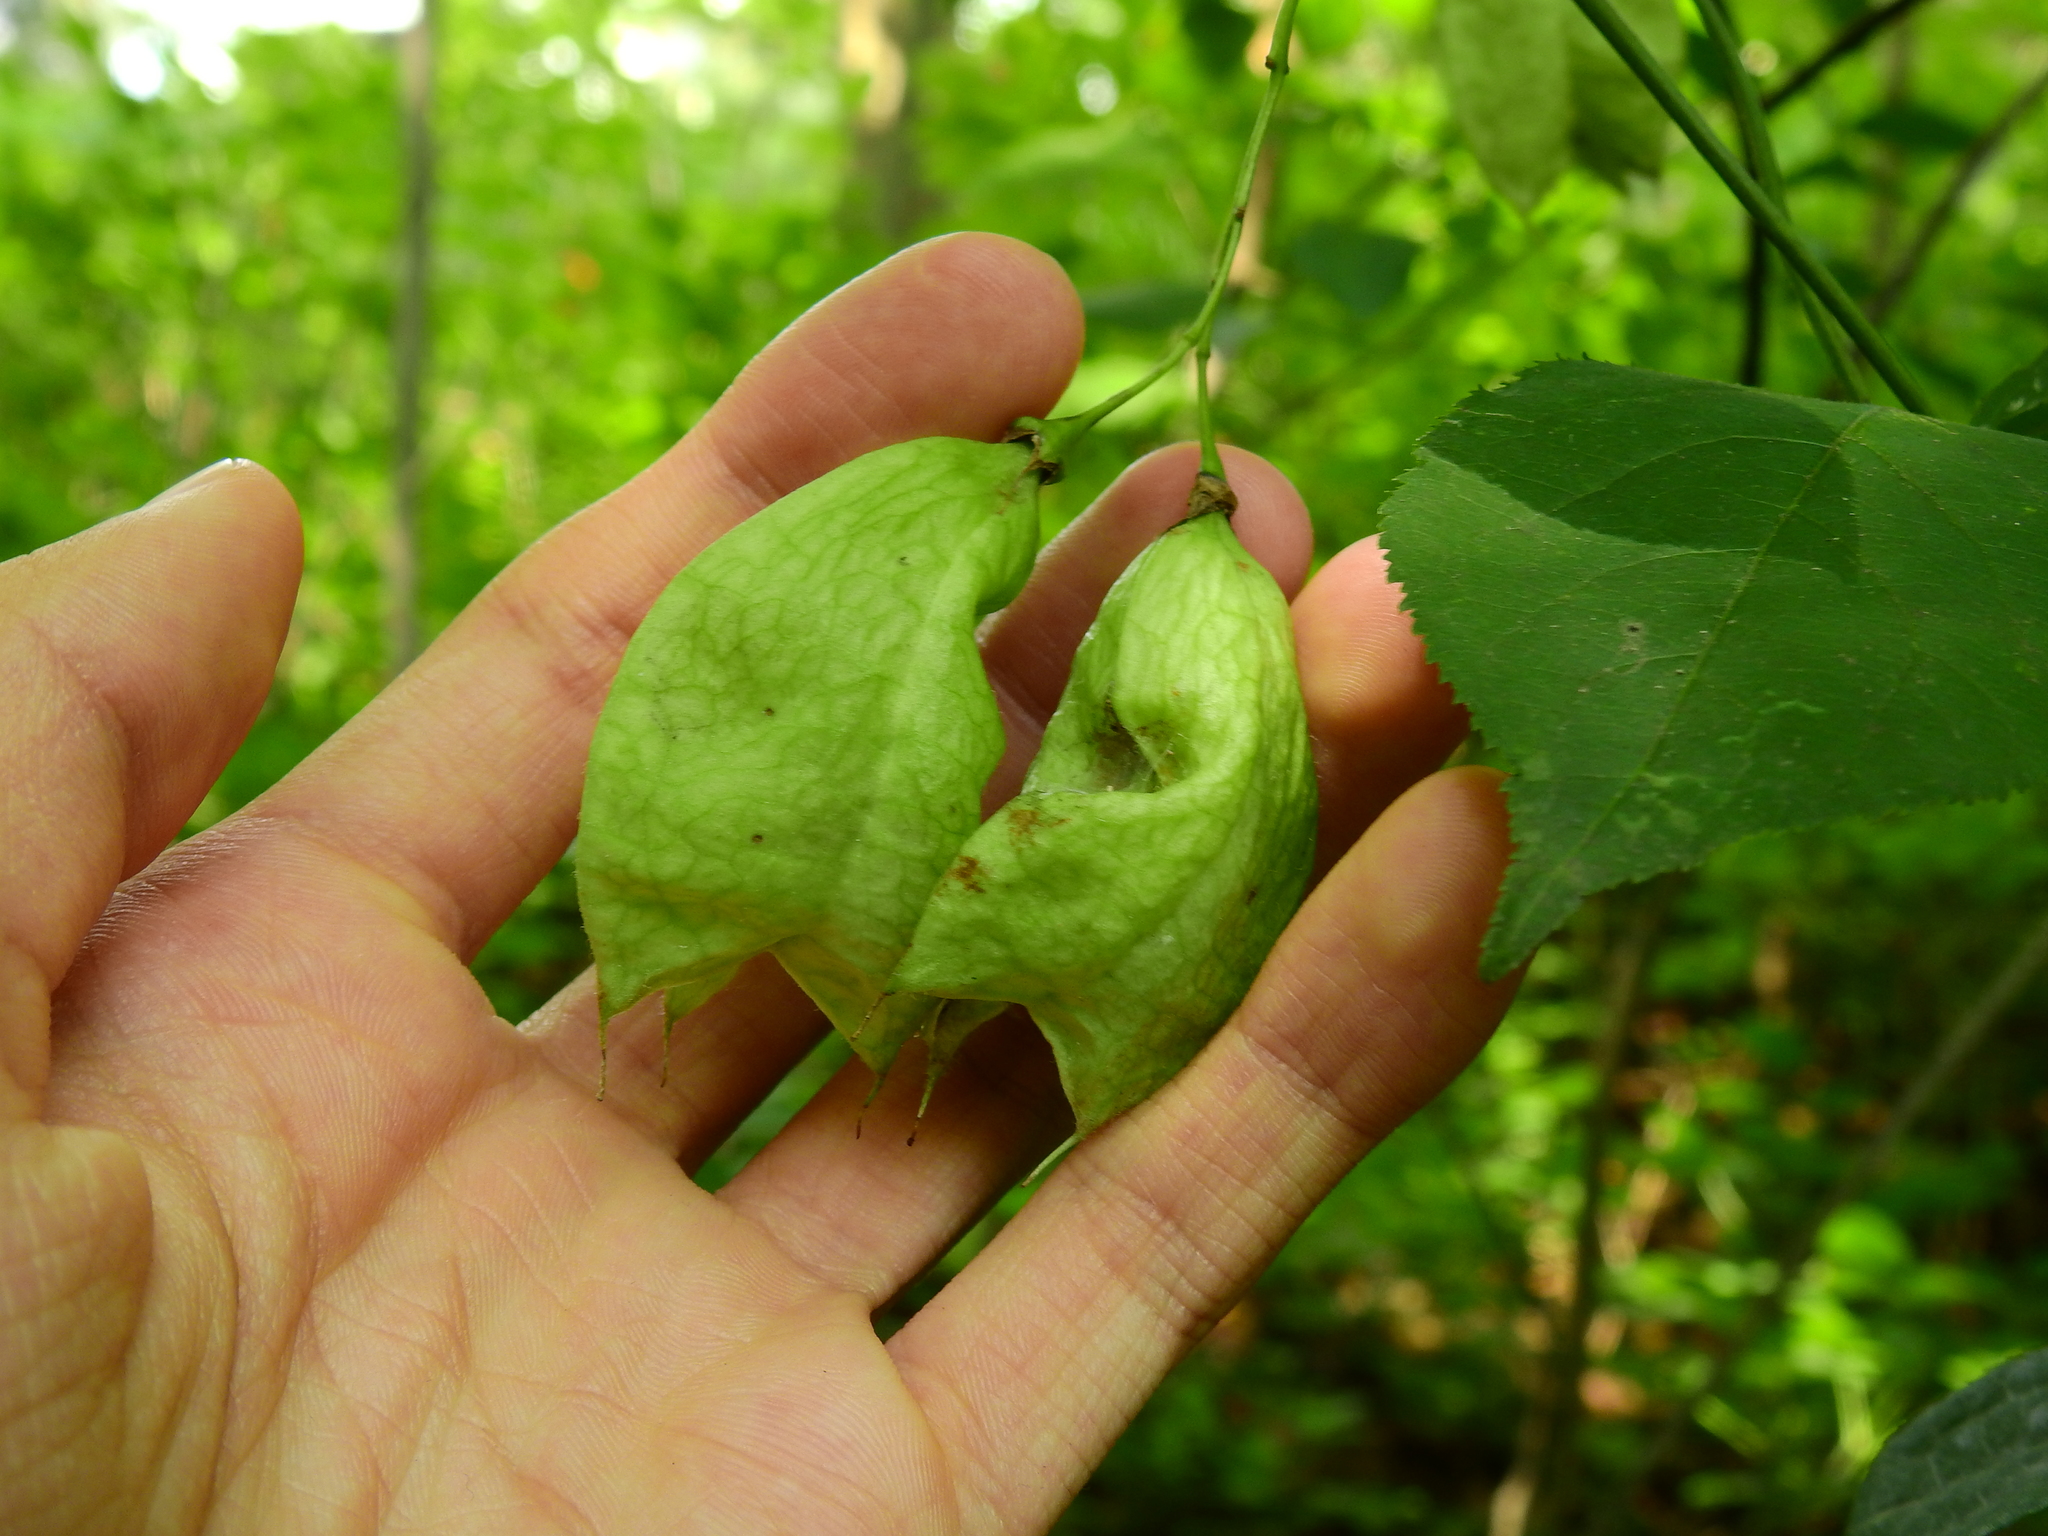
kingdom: Plantae
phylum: Tracheophyta
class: Magnoliopsida
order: Crossosomatales
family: Staphyleaceae
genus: Staphylea
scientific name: Staphylea trifolia
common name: American bladdernut
